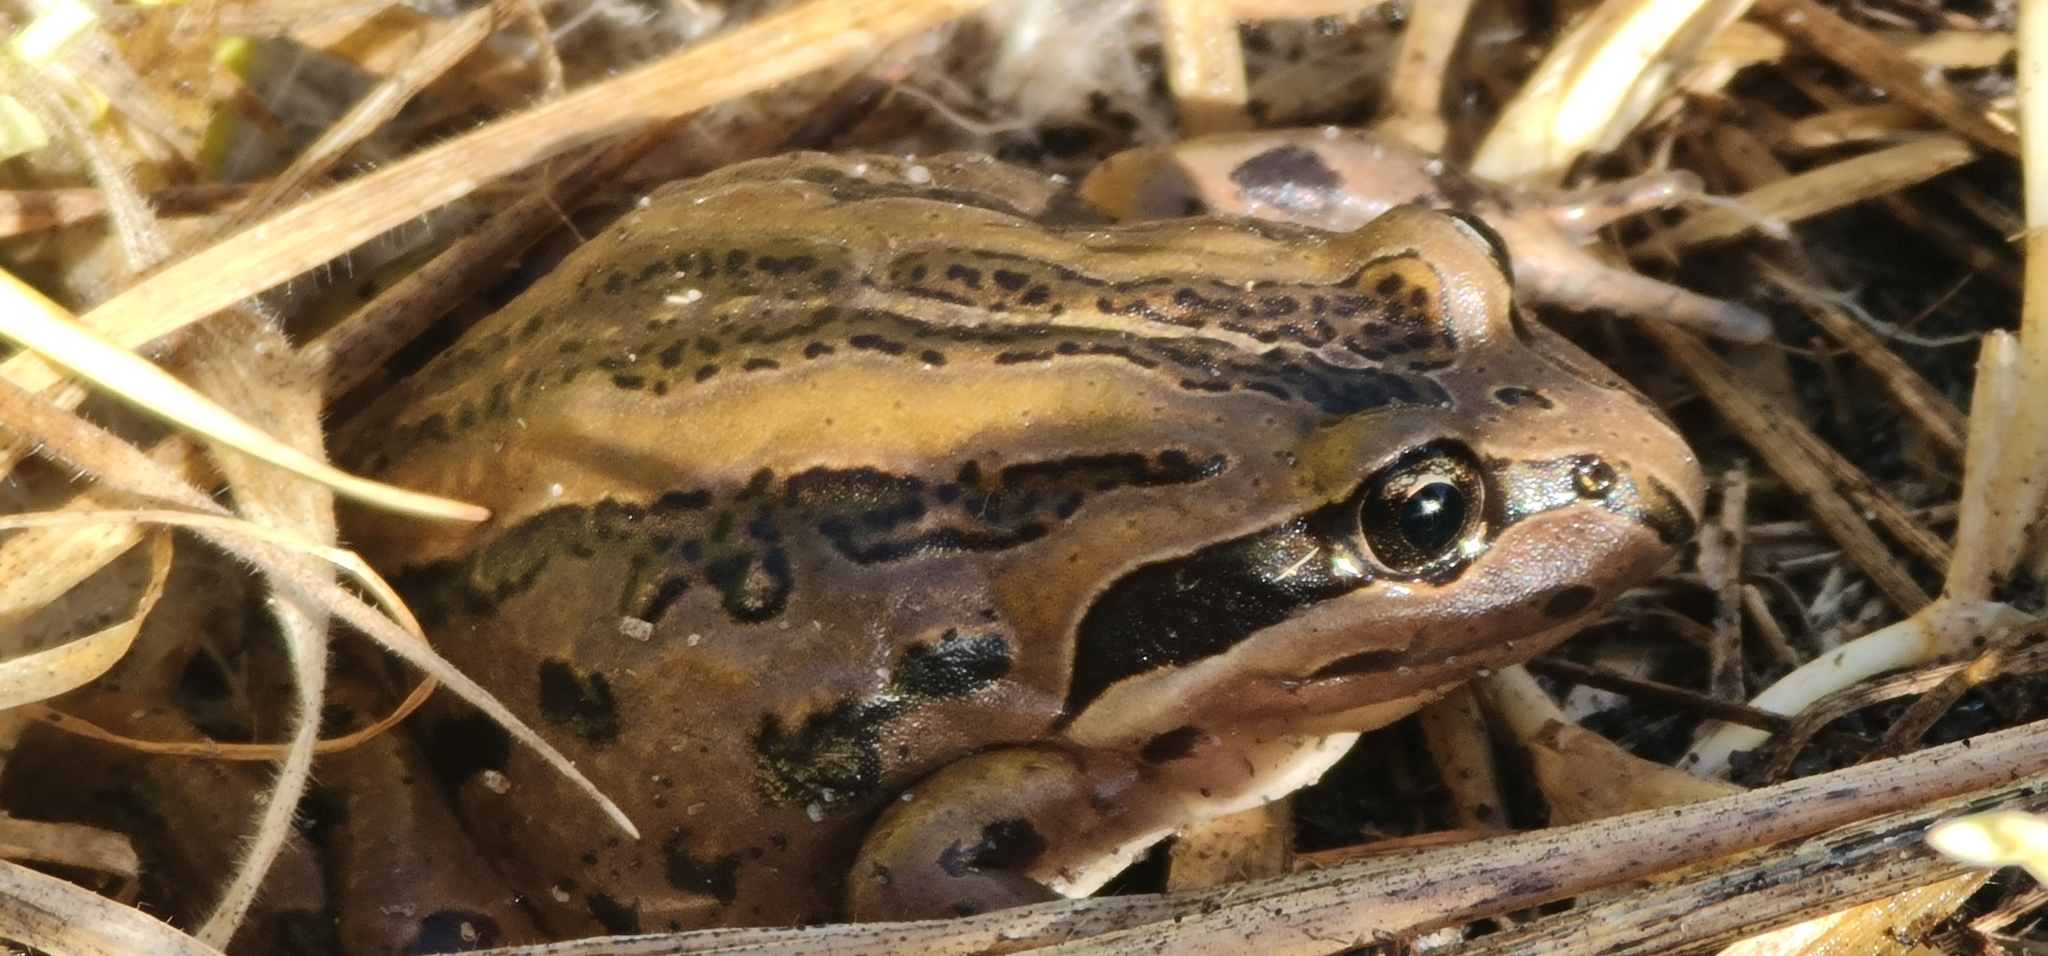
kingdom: Animalia
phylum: Chordata
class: Amphibia
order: Anura
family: Limnodynastidae
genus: Limnodynastes
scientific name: Limnodynastes peronii
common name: Brown frog
